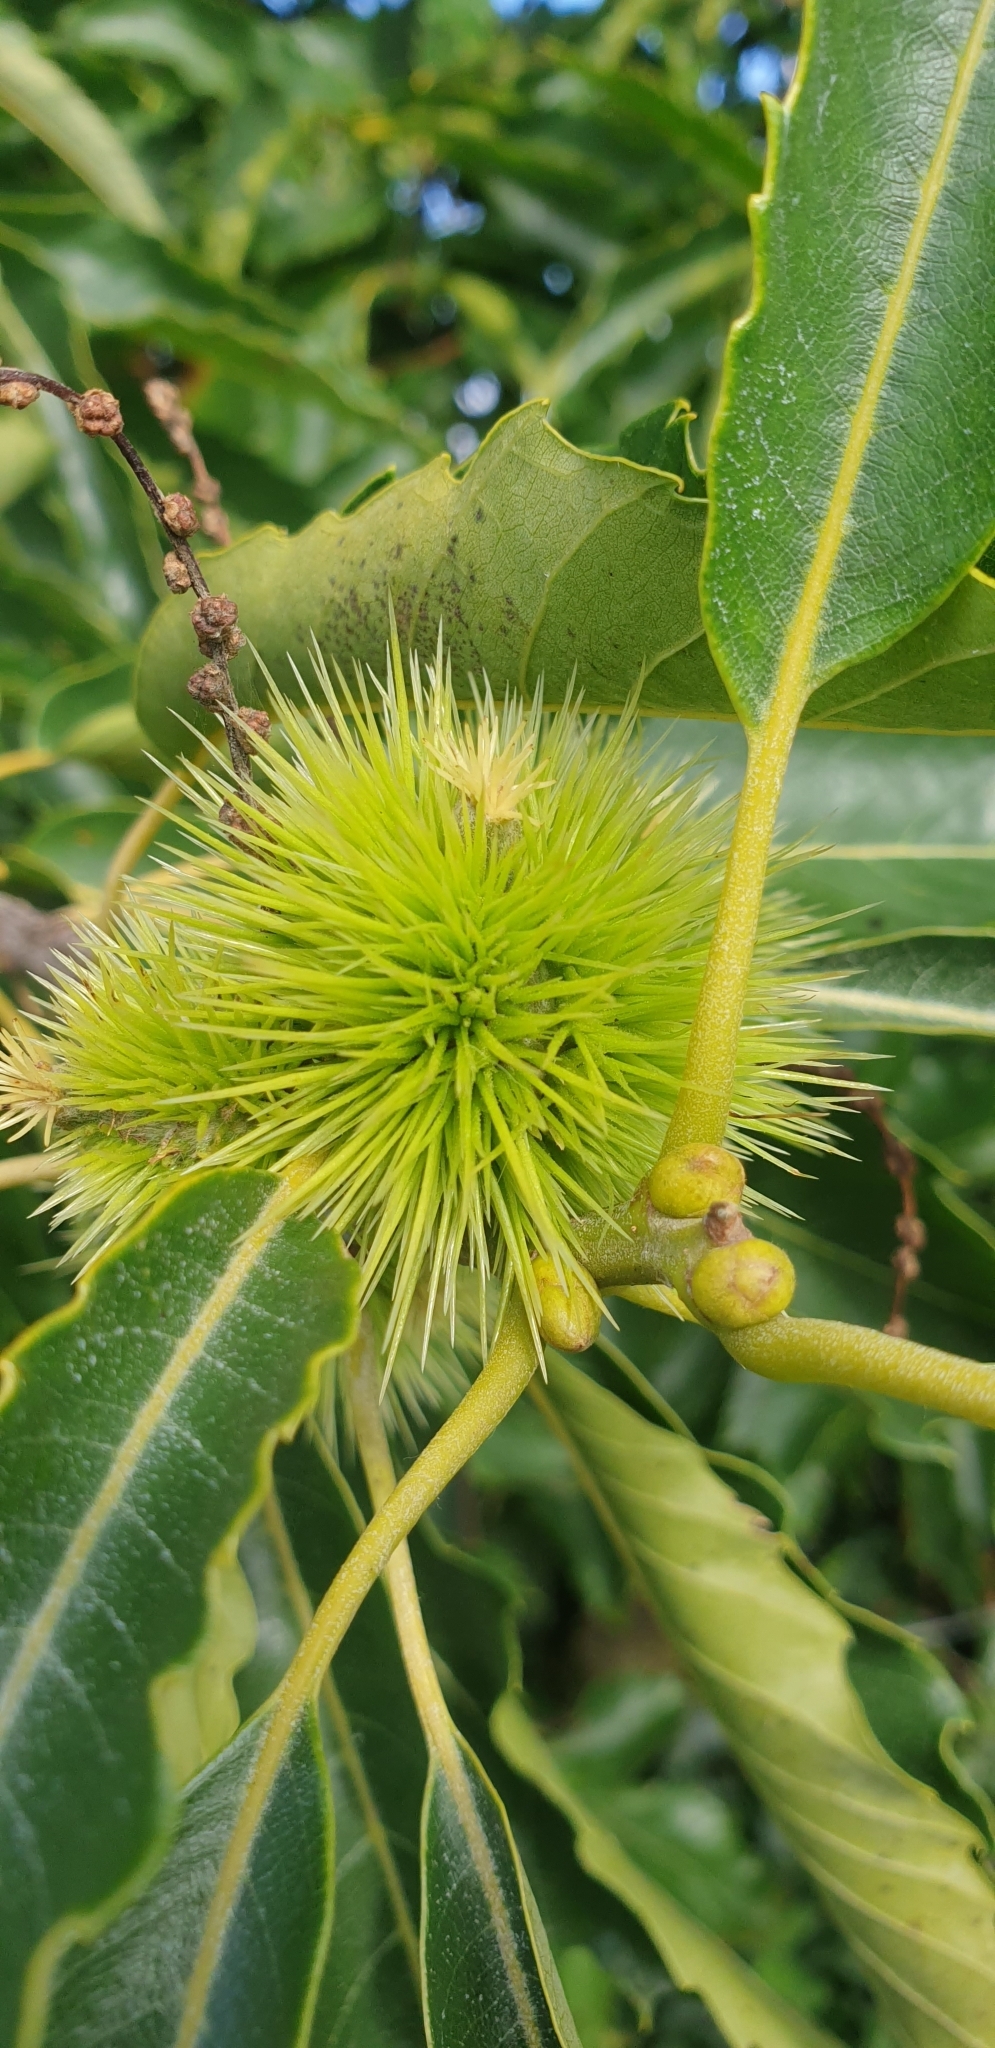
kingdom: Plantae
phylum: Tracheophyta
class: Magnoliopsida
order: Fagales
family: Fagaceae
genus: Castanea
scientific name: Castanea sativa
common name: Sweet chestnut
